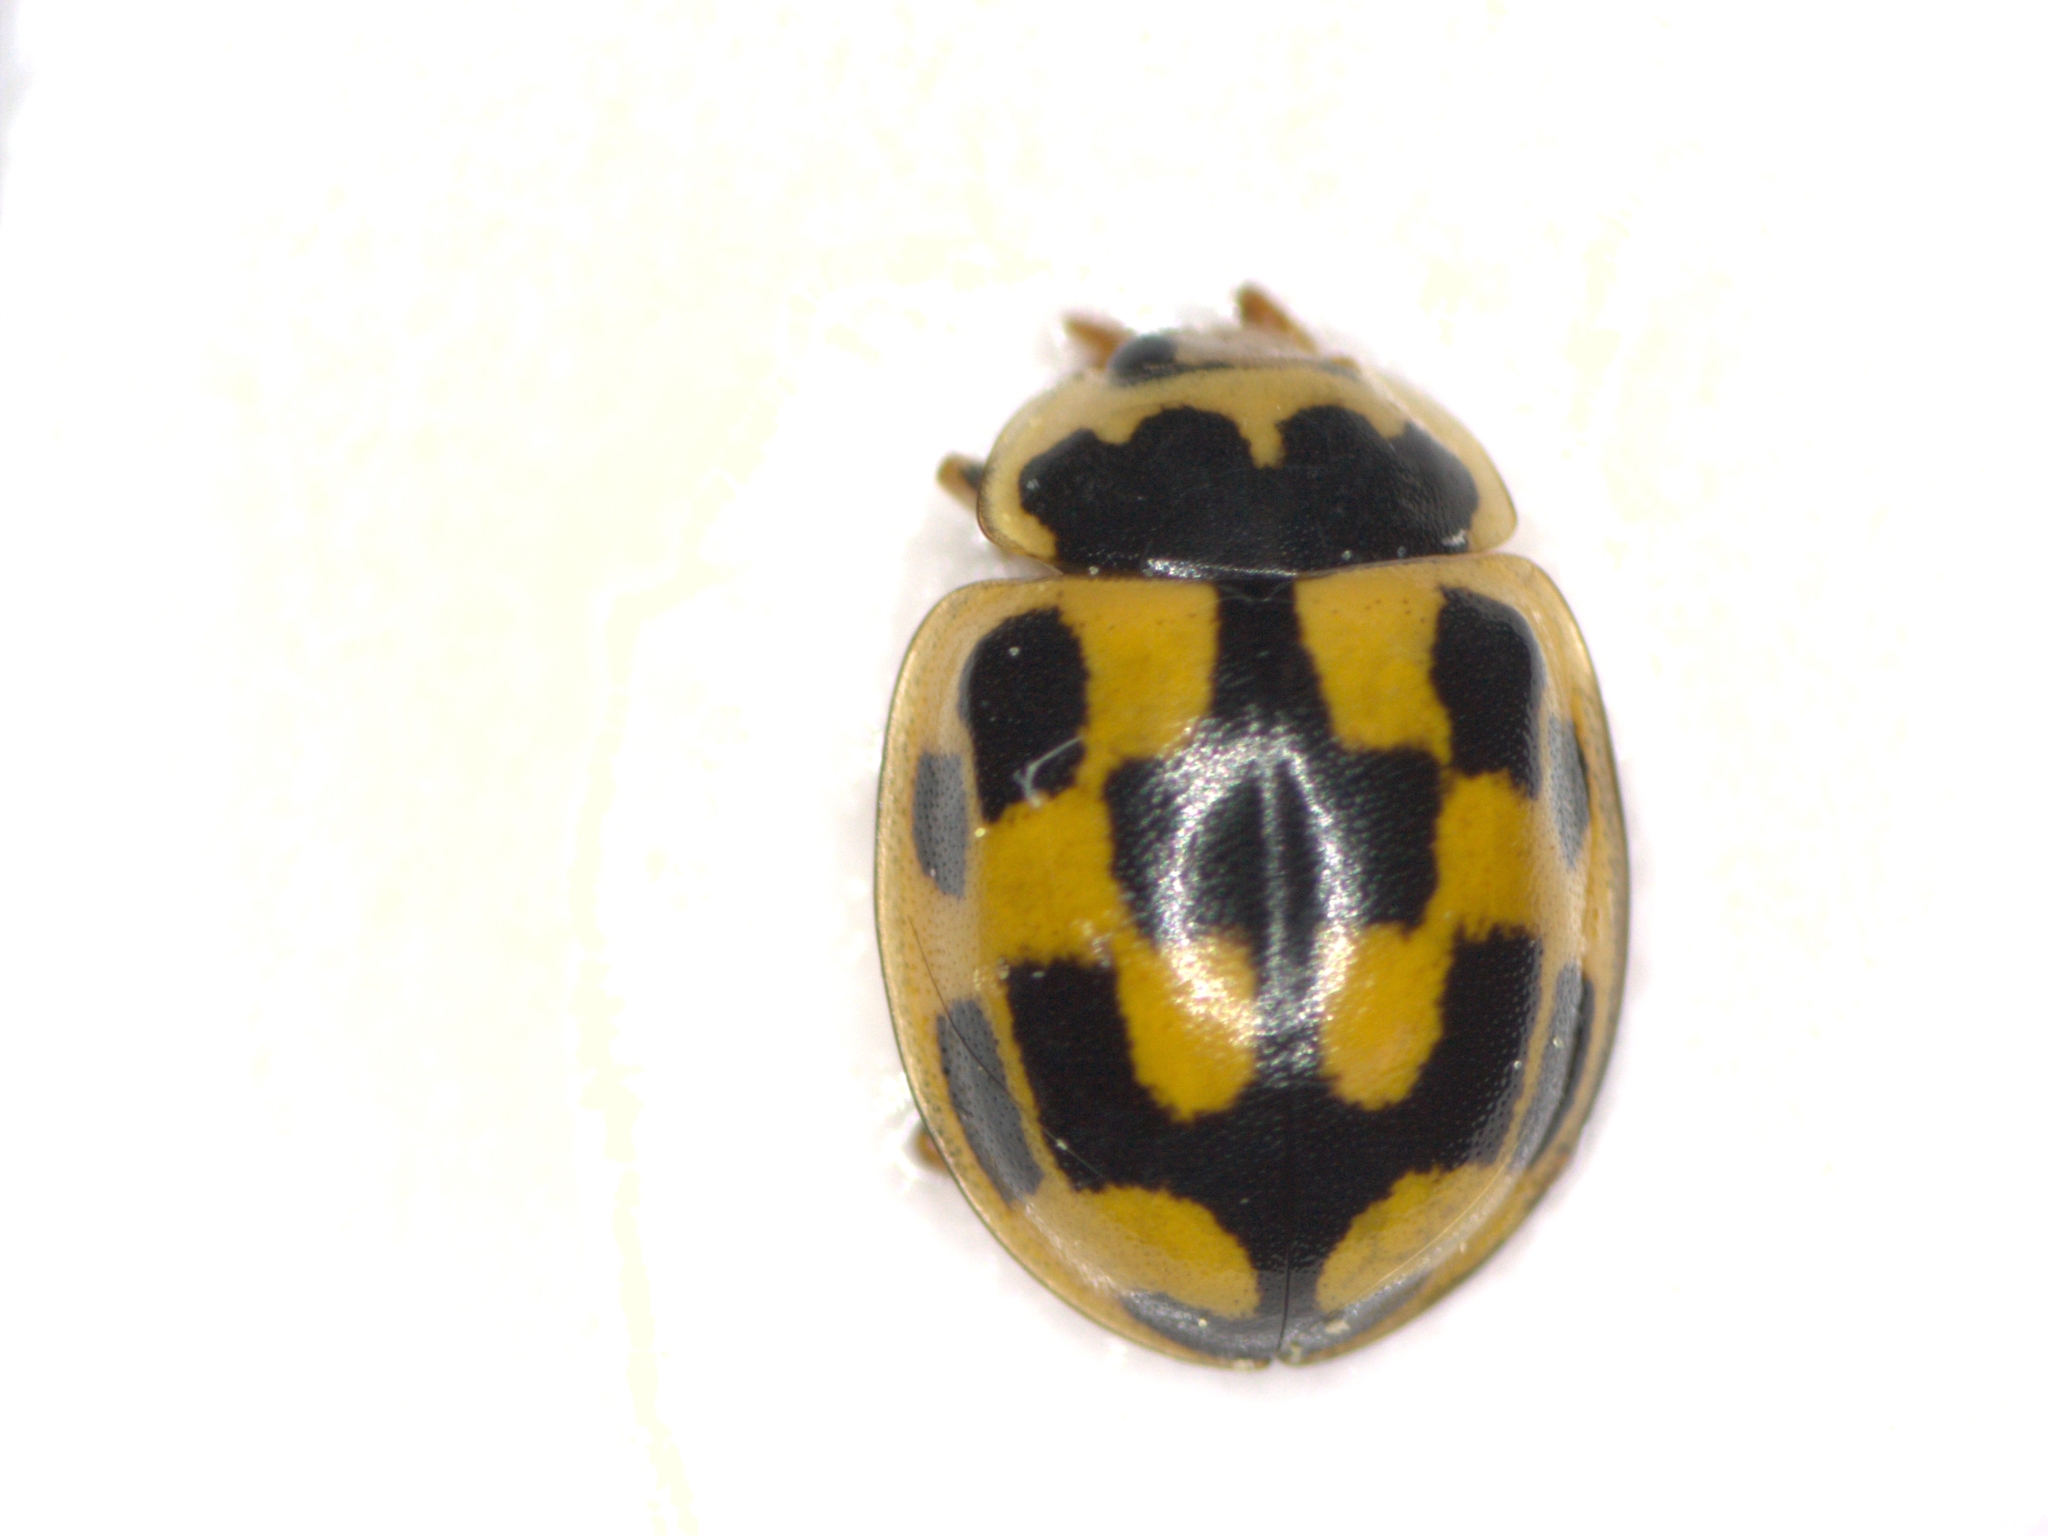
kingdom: Animalia
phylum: Arthropoda
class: Insecta
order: Coleoptera
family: Coccinellidae
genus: Propylaea
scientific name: Propylaea quatuordecimpunctata
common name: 14-spotted ladybird beetle
